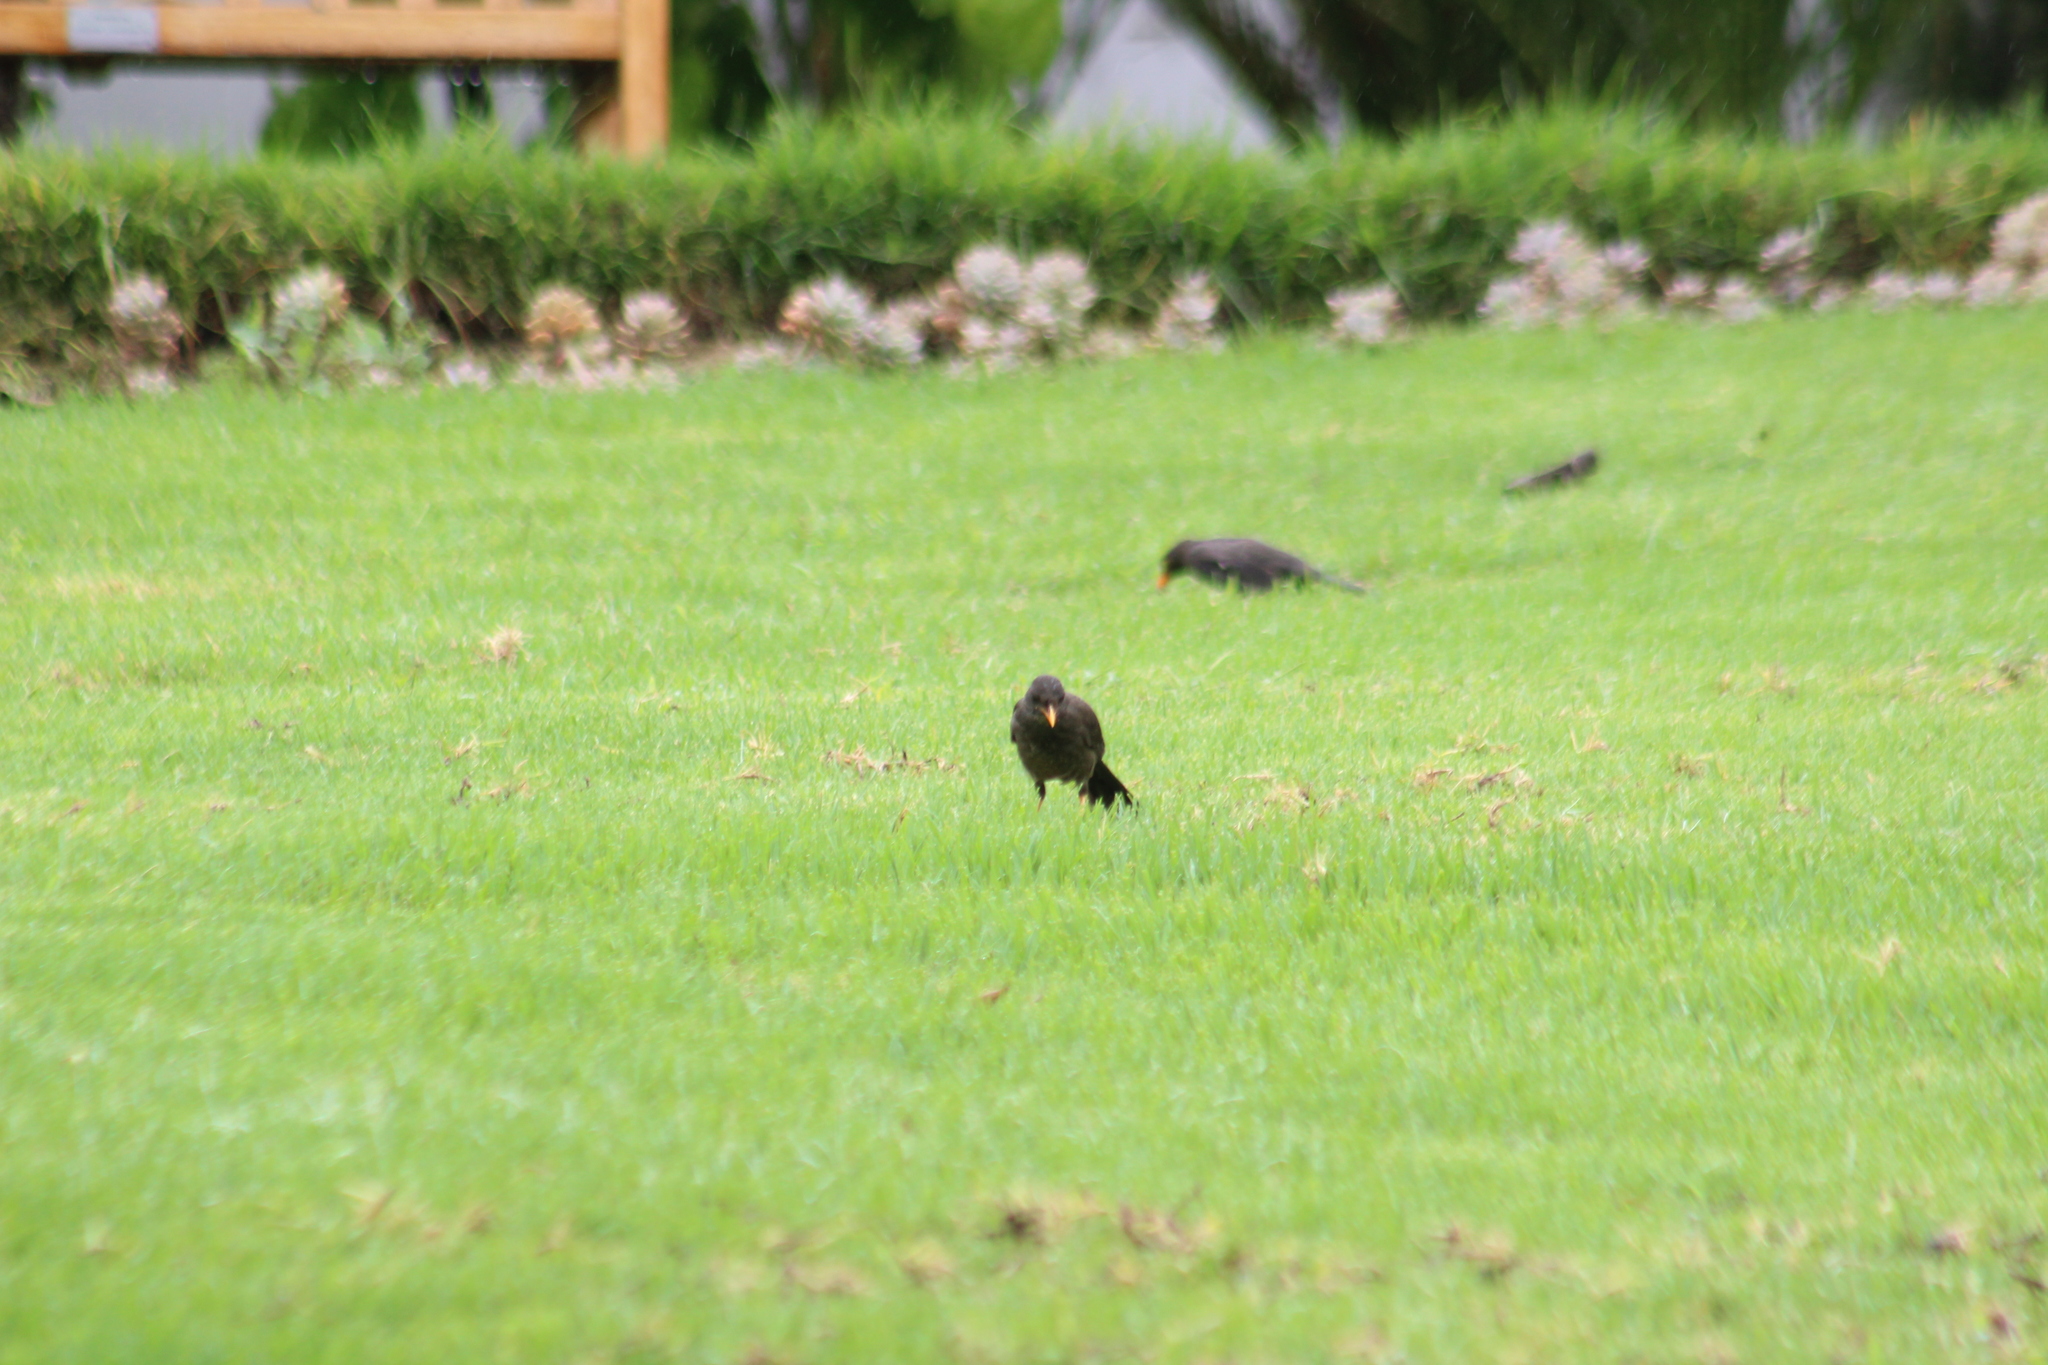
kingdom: Animalia
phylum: Chordata
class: Aves
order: Passeriformes
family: Turdidae
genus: Turdus
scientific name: Turdus fuscater
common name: Great thrush
